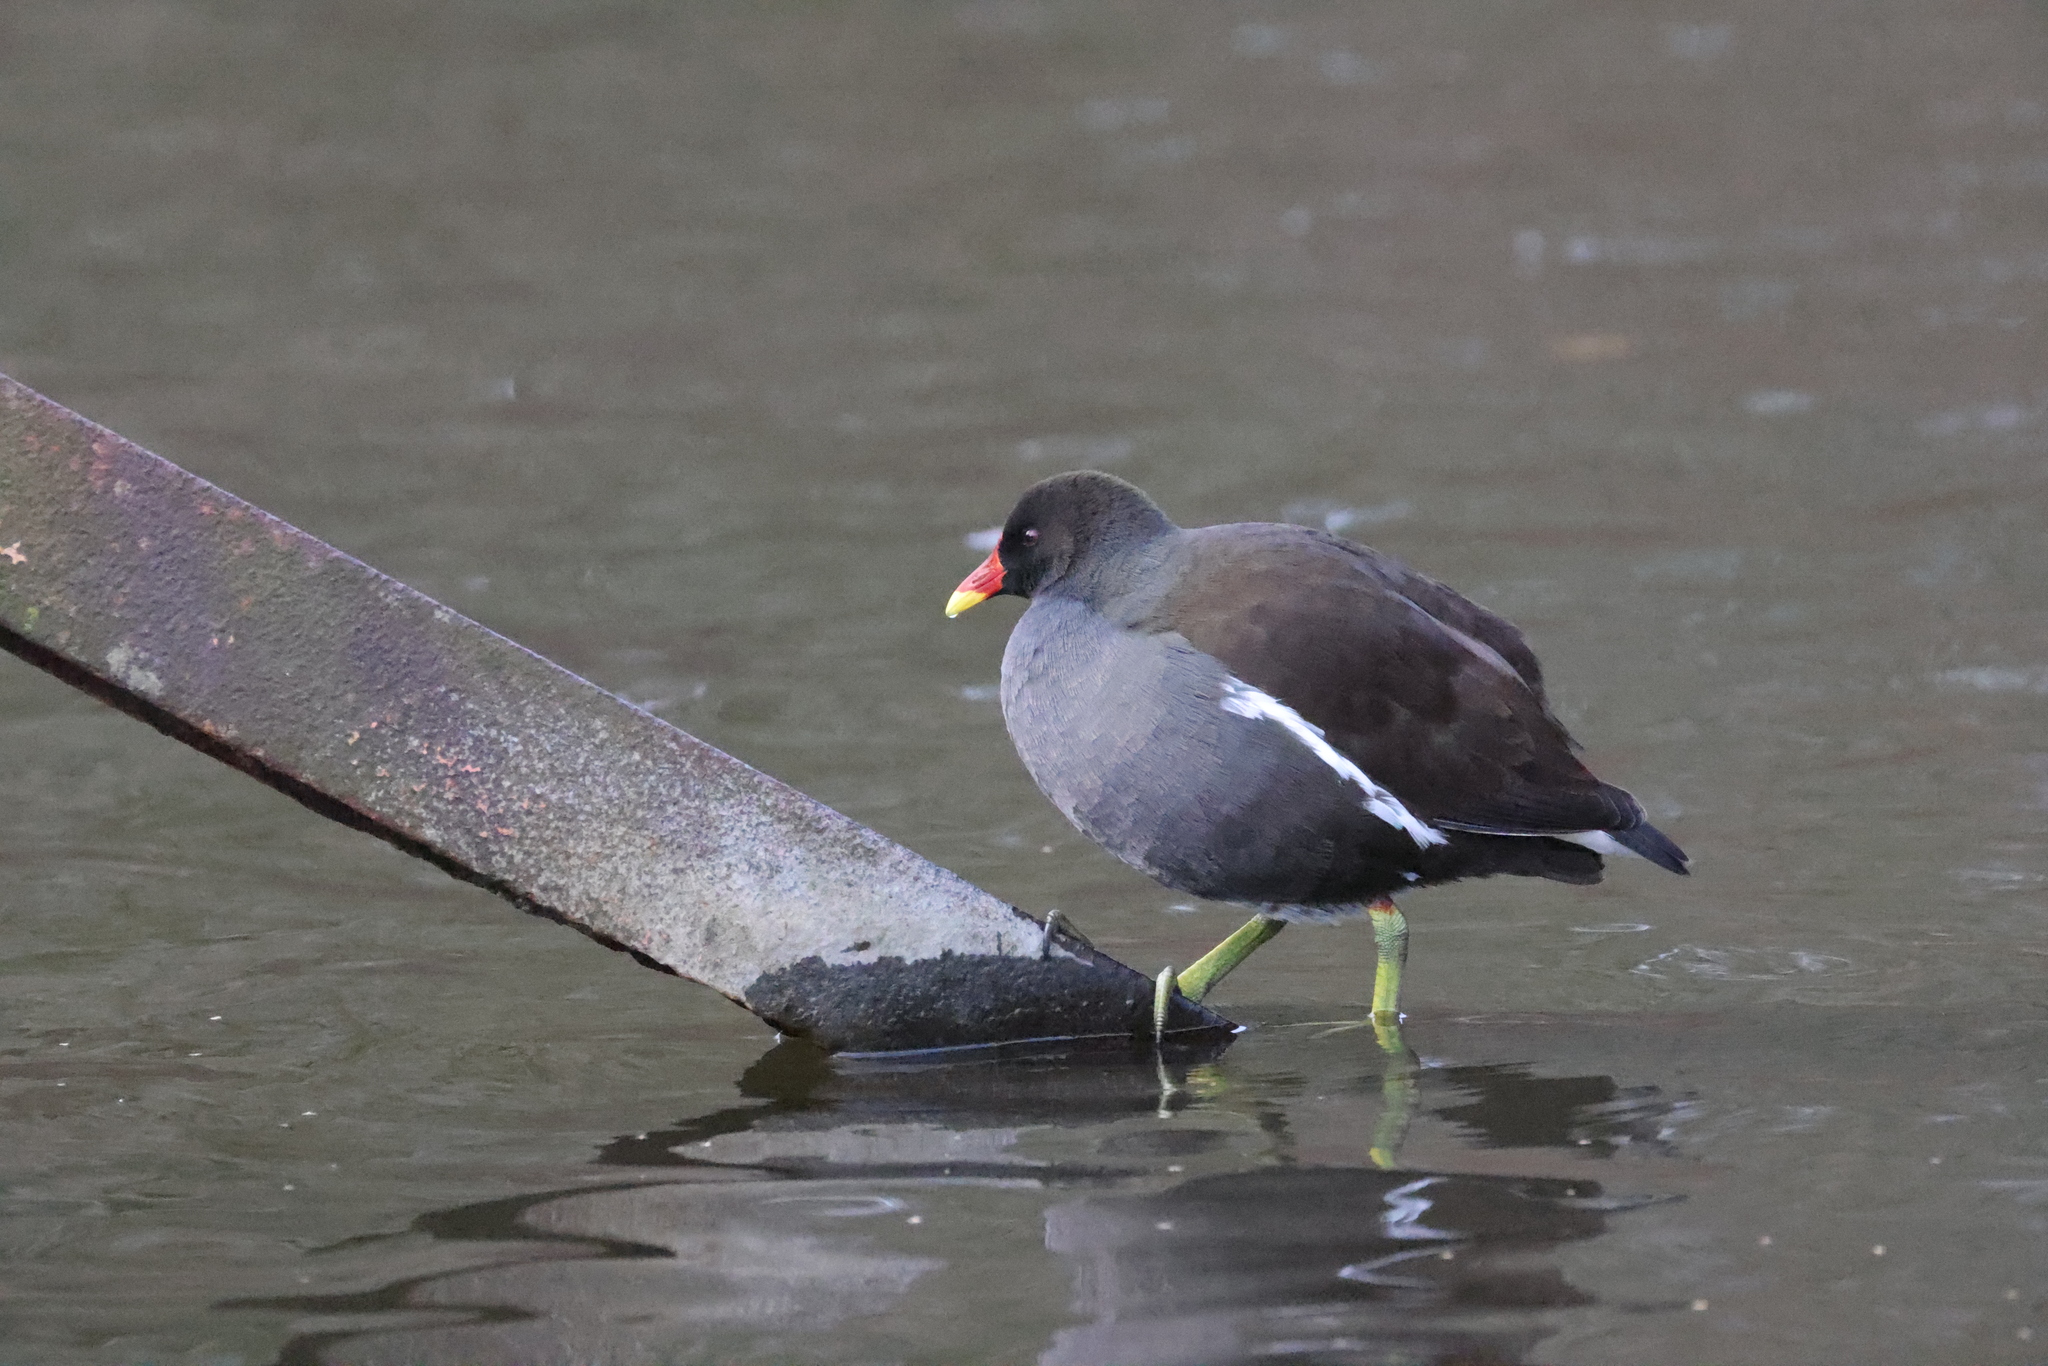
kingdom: Animalia
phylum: Chordata
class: Aves
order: Gruiformes
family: Rallidae
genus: Gallinula
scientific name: Gallinula chloropus
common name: Common moorhen
